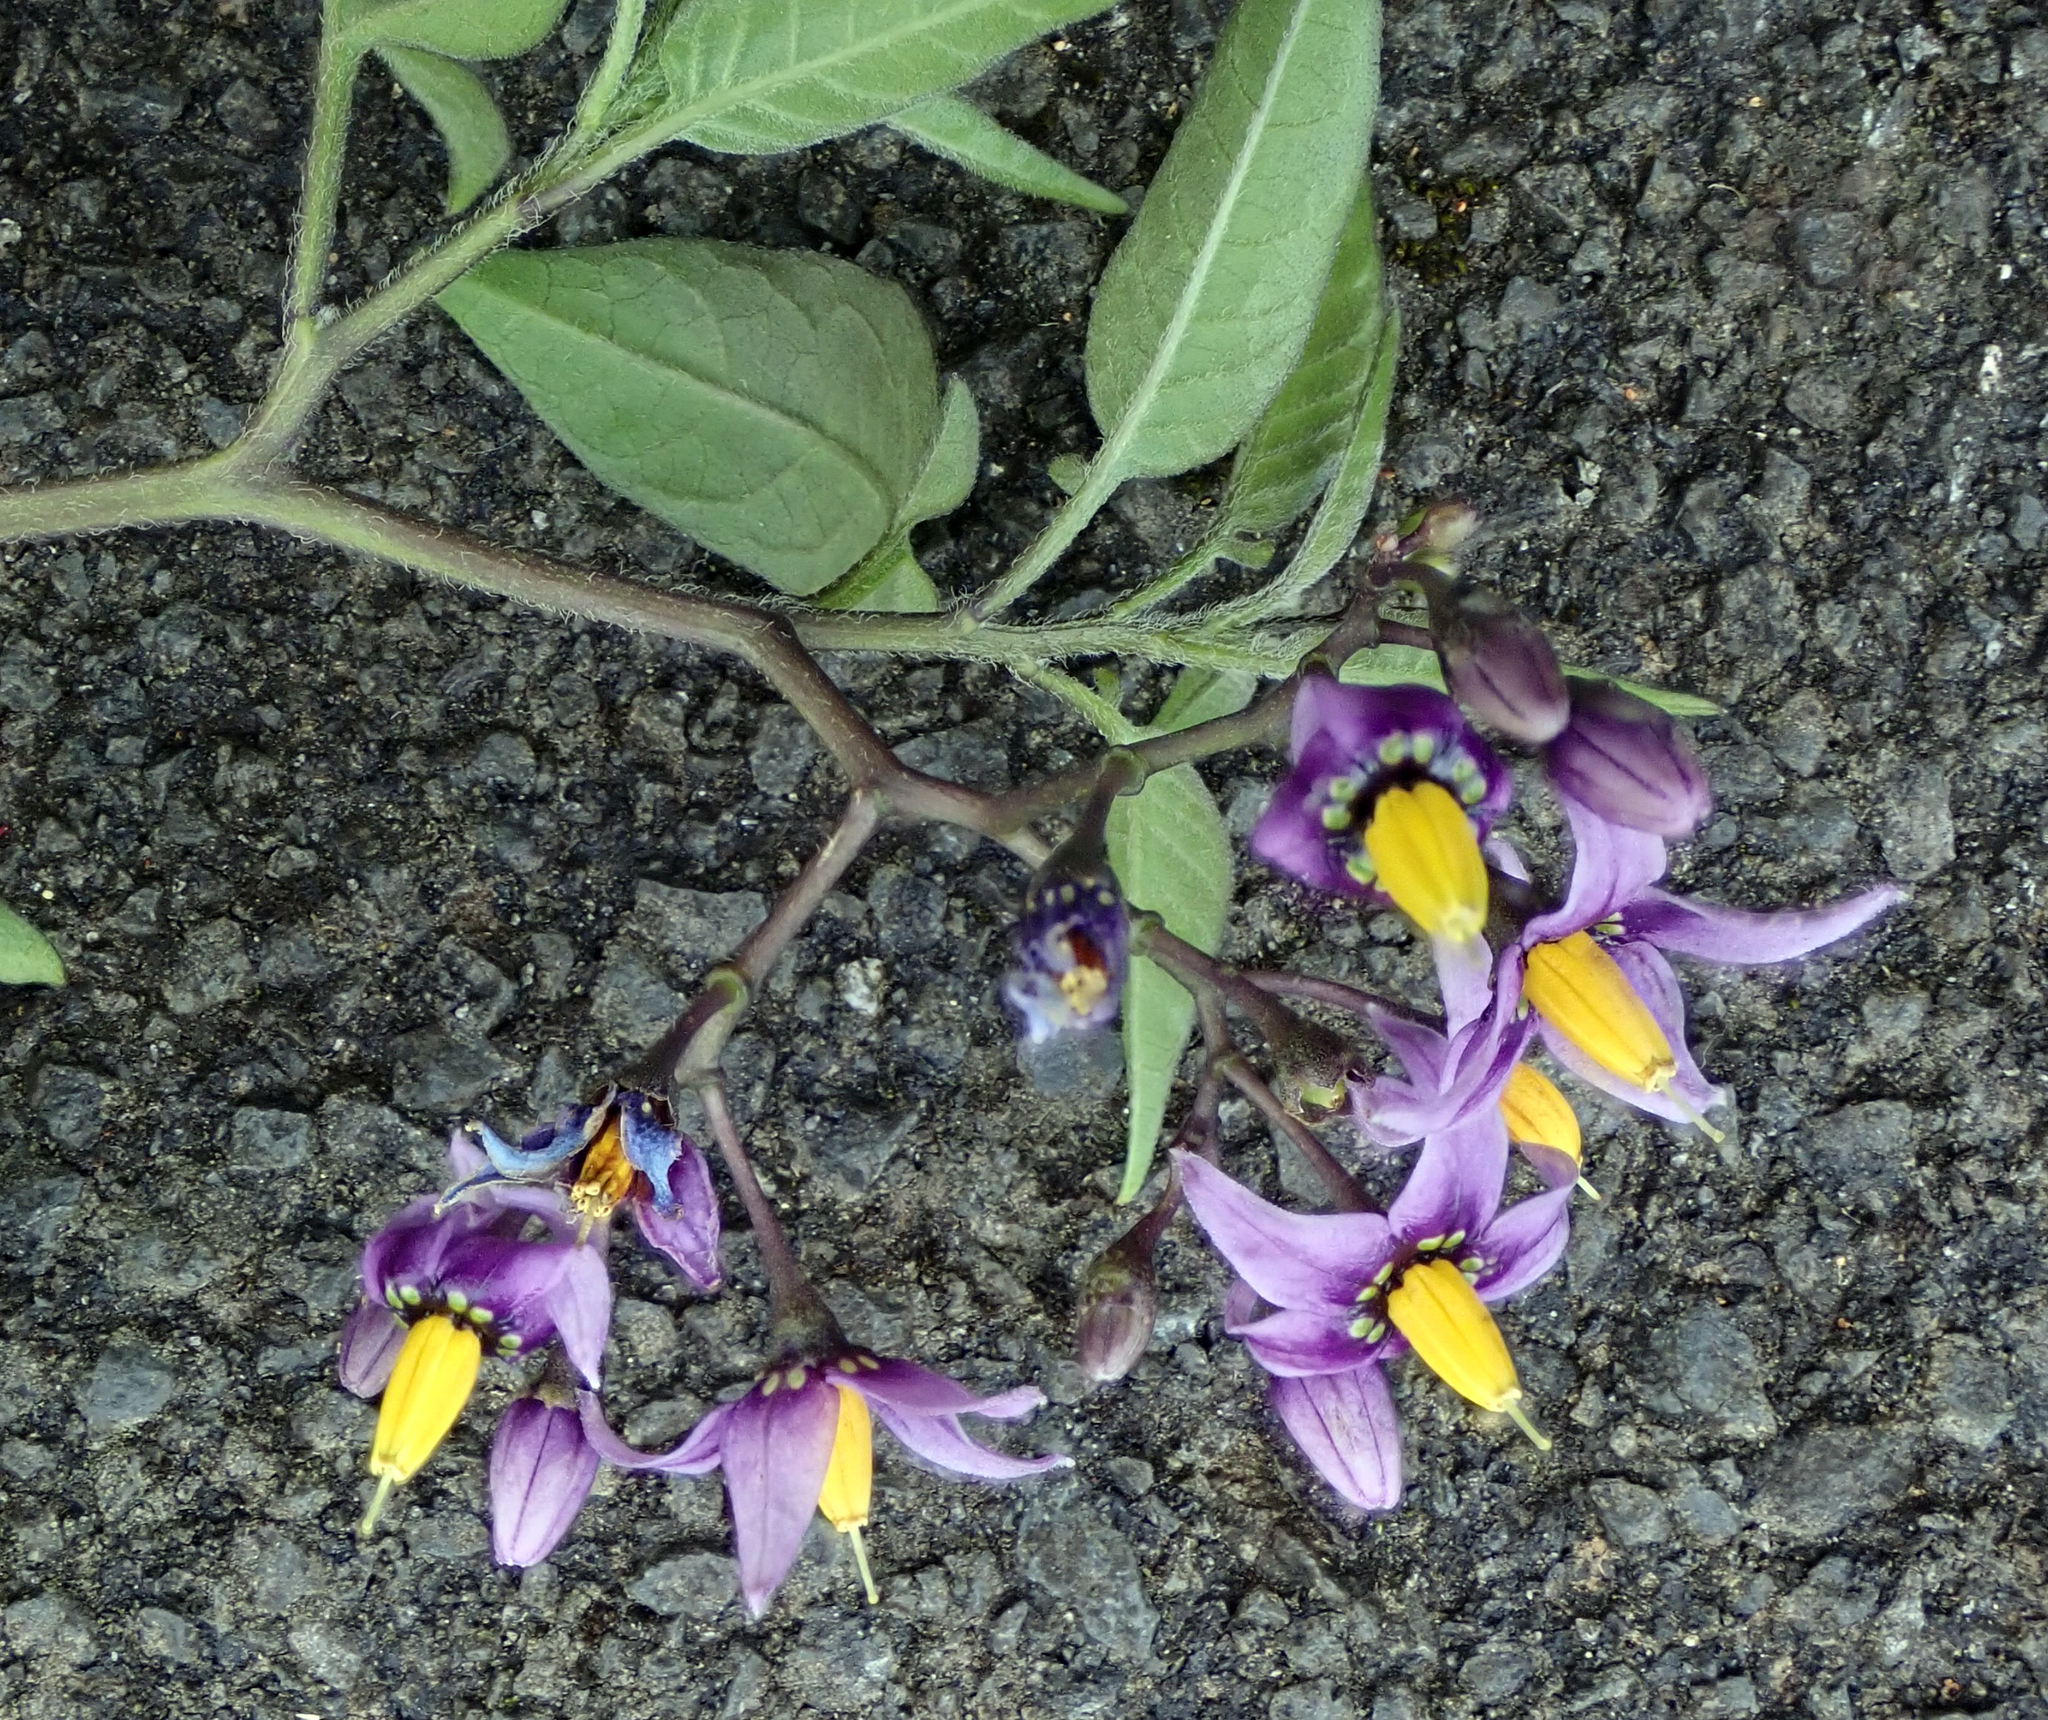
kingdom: Plantae
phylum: Tracheophyta
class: Magnoliopsida
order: Solanales
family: Solanaceae
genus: Solanum
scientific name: Solanum dulcamara
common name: Climbing nightshade
